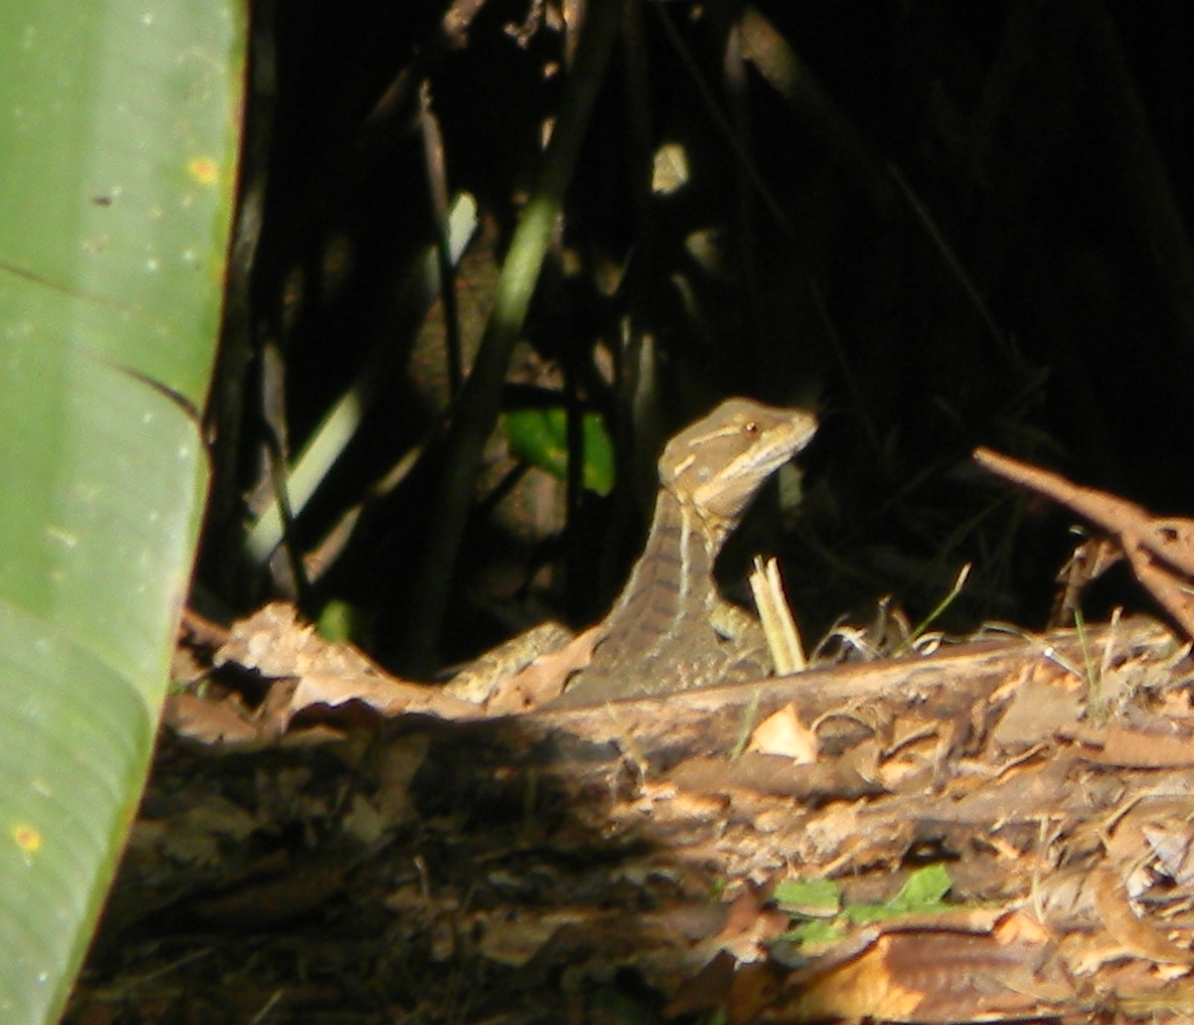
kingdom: Animalia
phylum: Chordata
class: Squamata
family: Corytophanidae
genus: Basiliscus
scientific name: Basiliscus basiliscus
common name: Common basilisk
